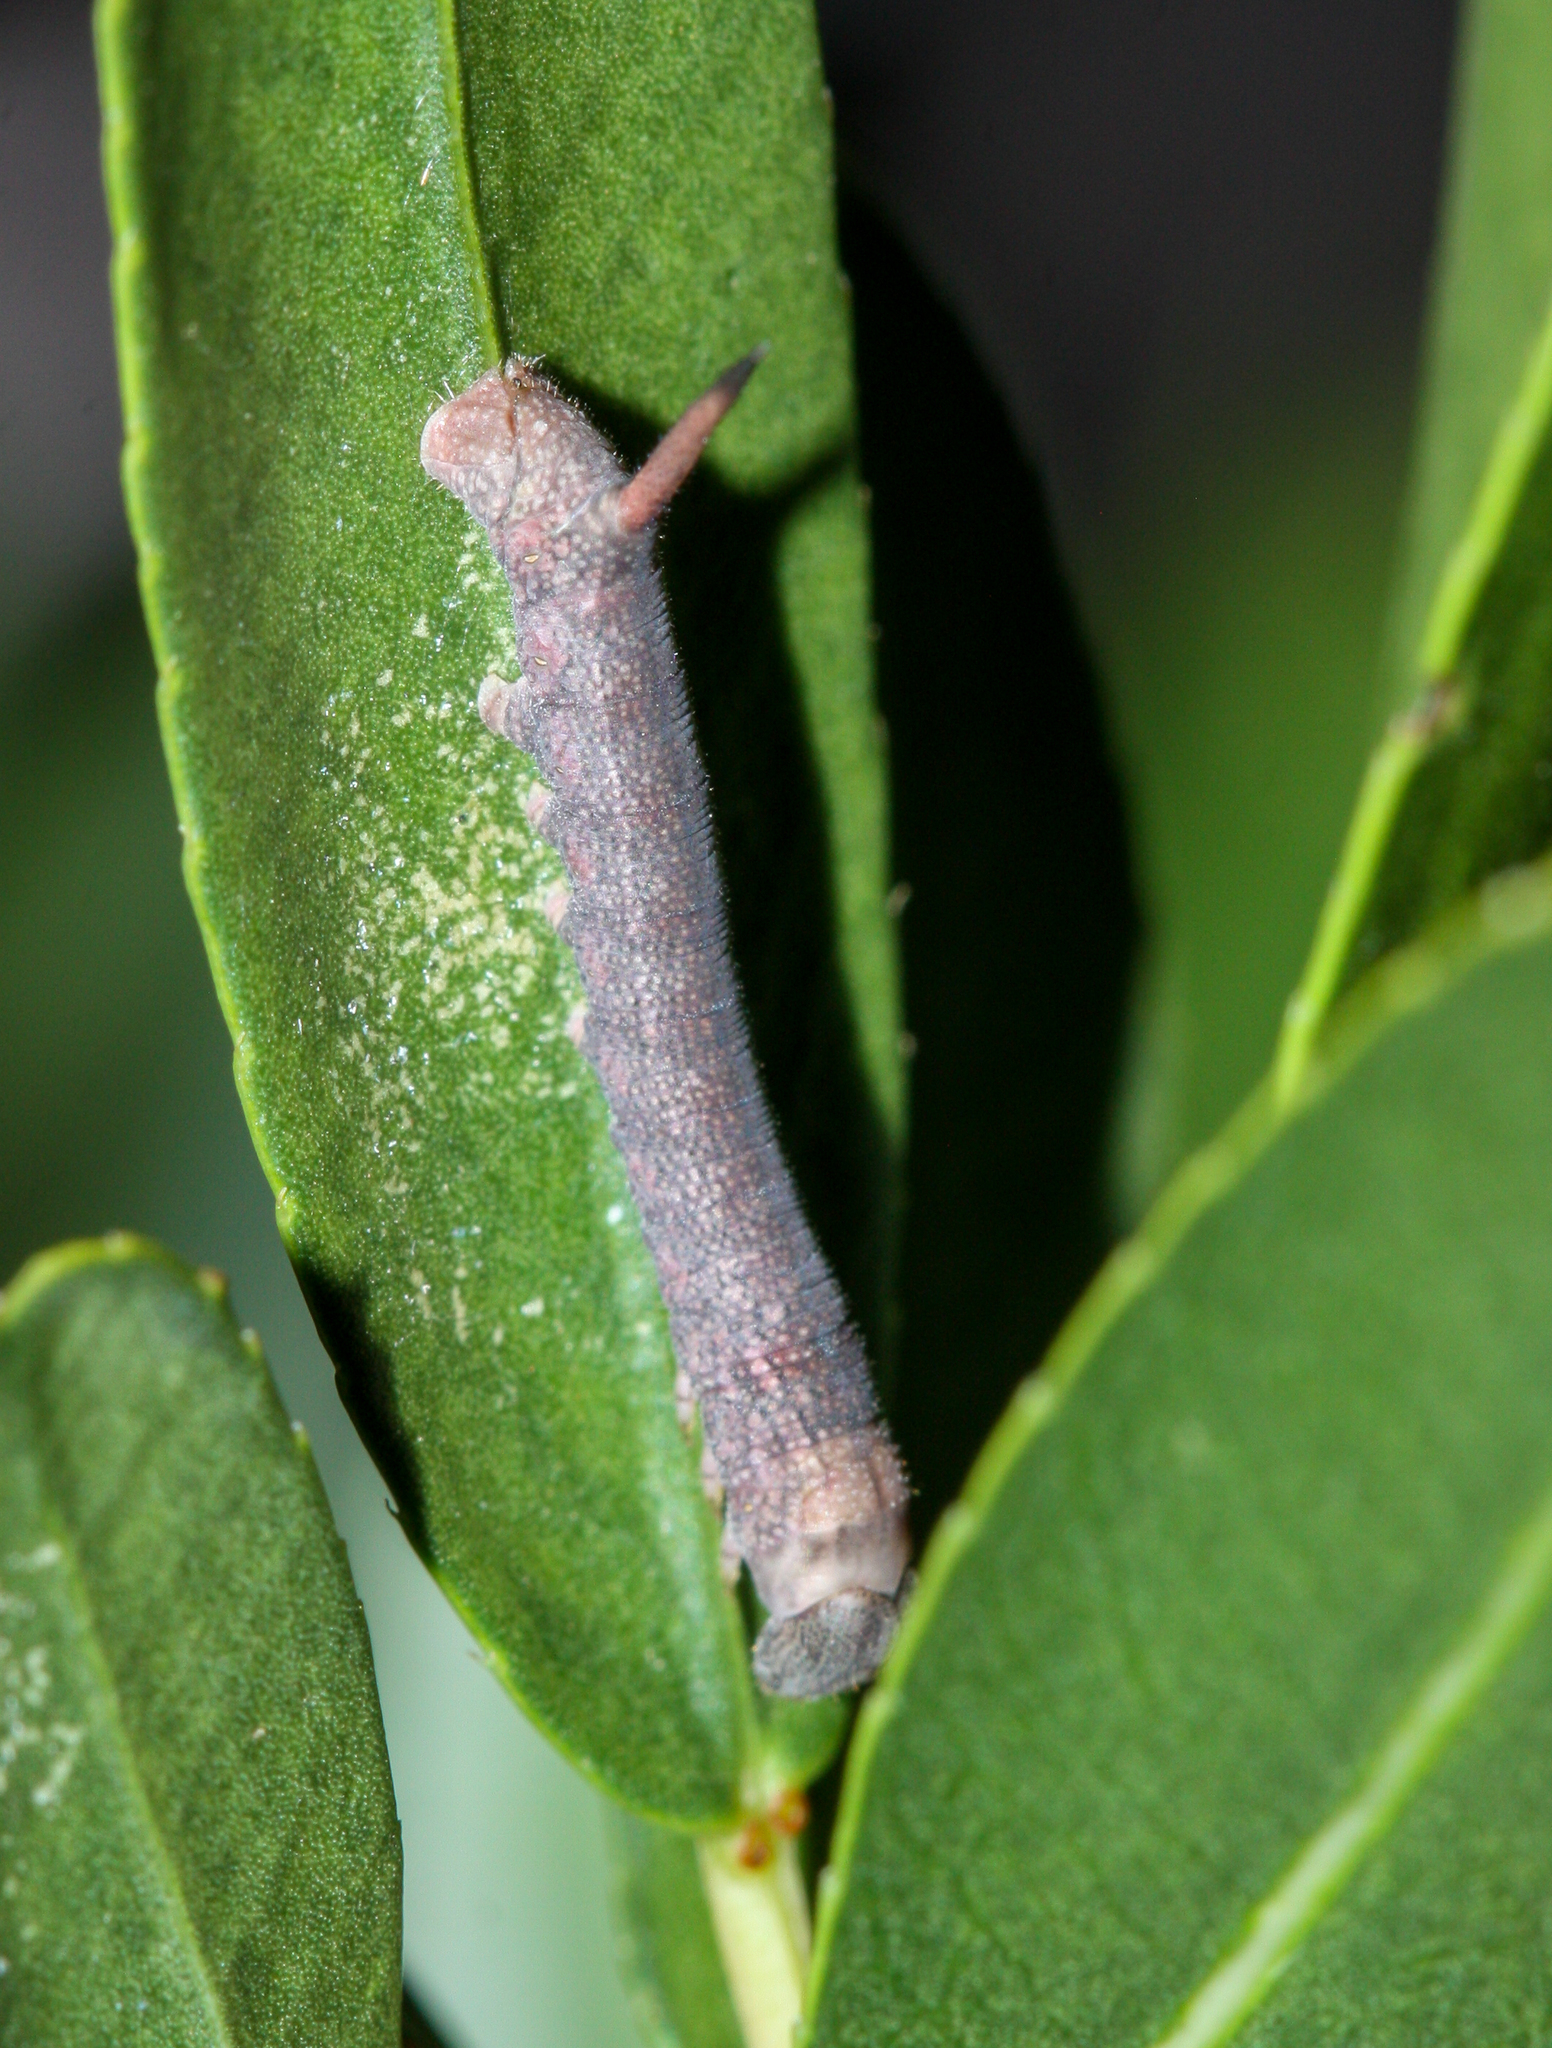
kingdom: Animalia
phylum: Arthropoda
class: Insecta
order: Lepidoptera
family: Sphingidae
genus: Erinnyis
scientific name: Erinnyis ello
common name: Ello sphinx
